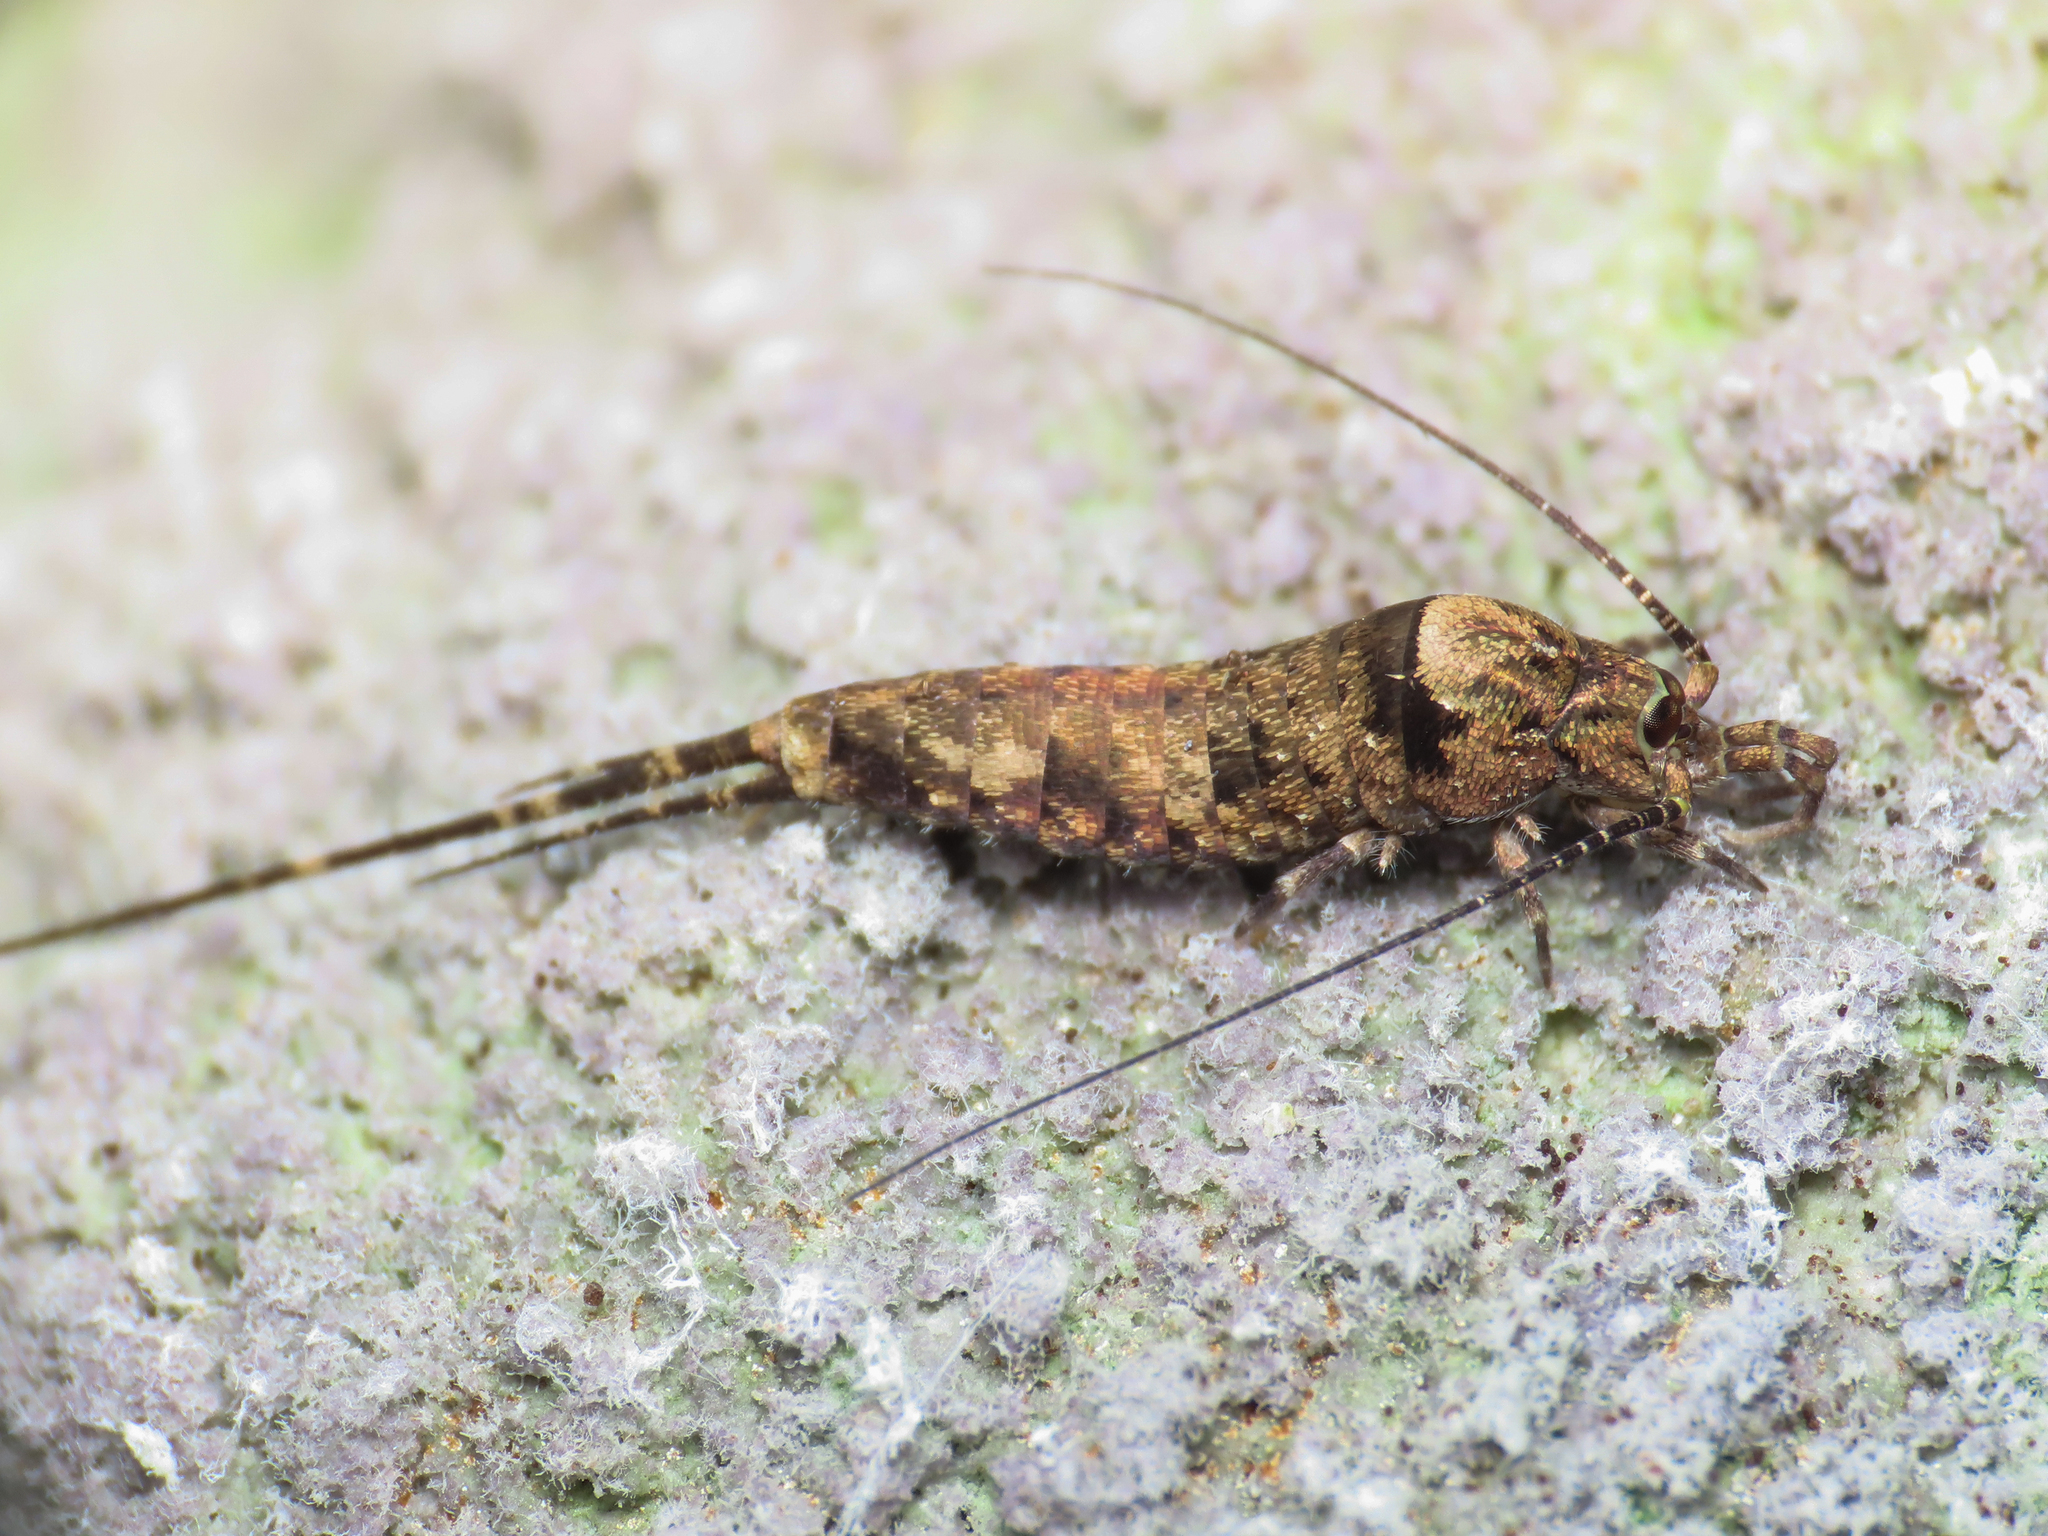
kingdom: Animalia
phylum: Arthropoda
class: Insecta
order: Archaeognatha
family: Machilidae
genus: Trigoniophthalmus
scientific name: Trigoniophthalmus alternatus
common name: Jumping bristletail
